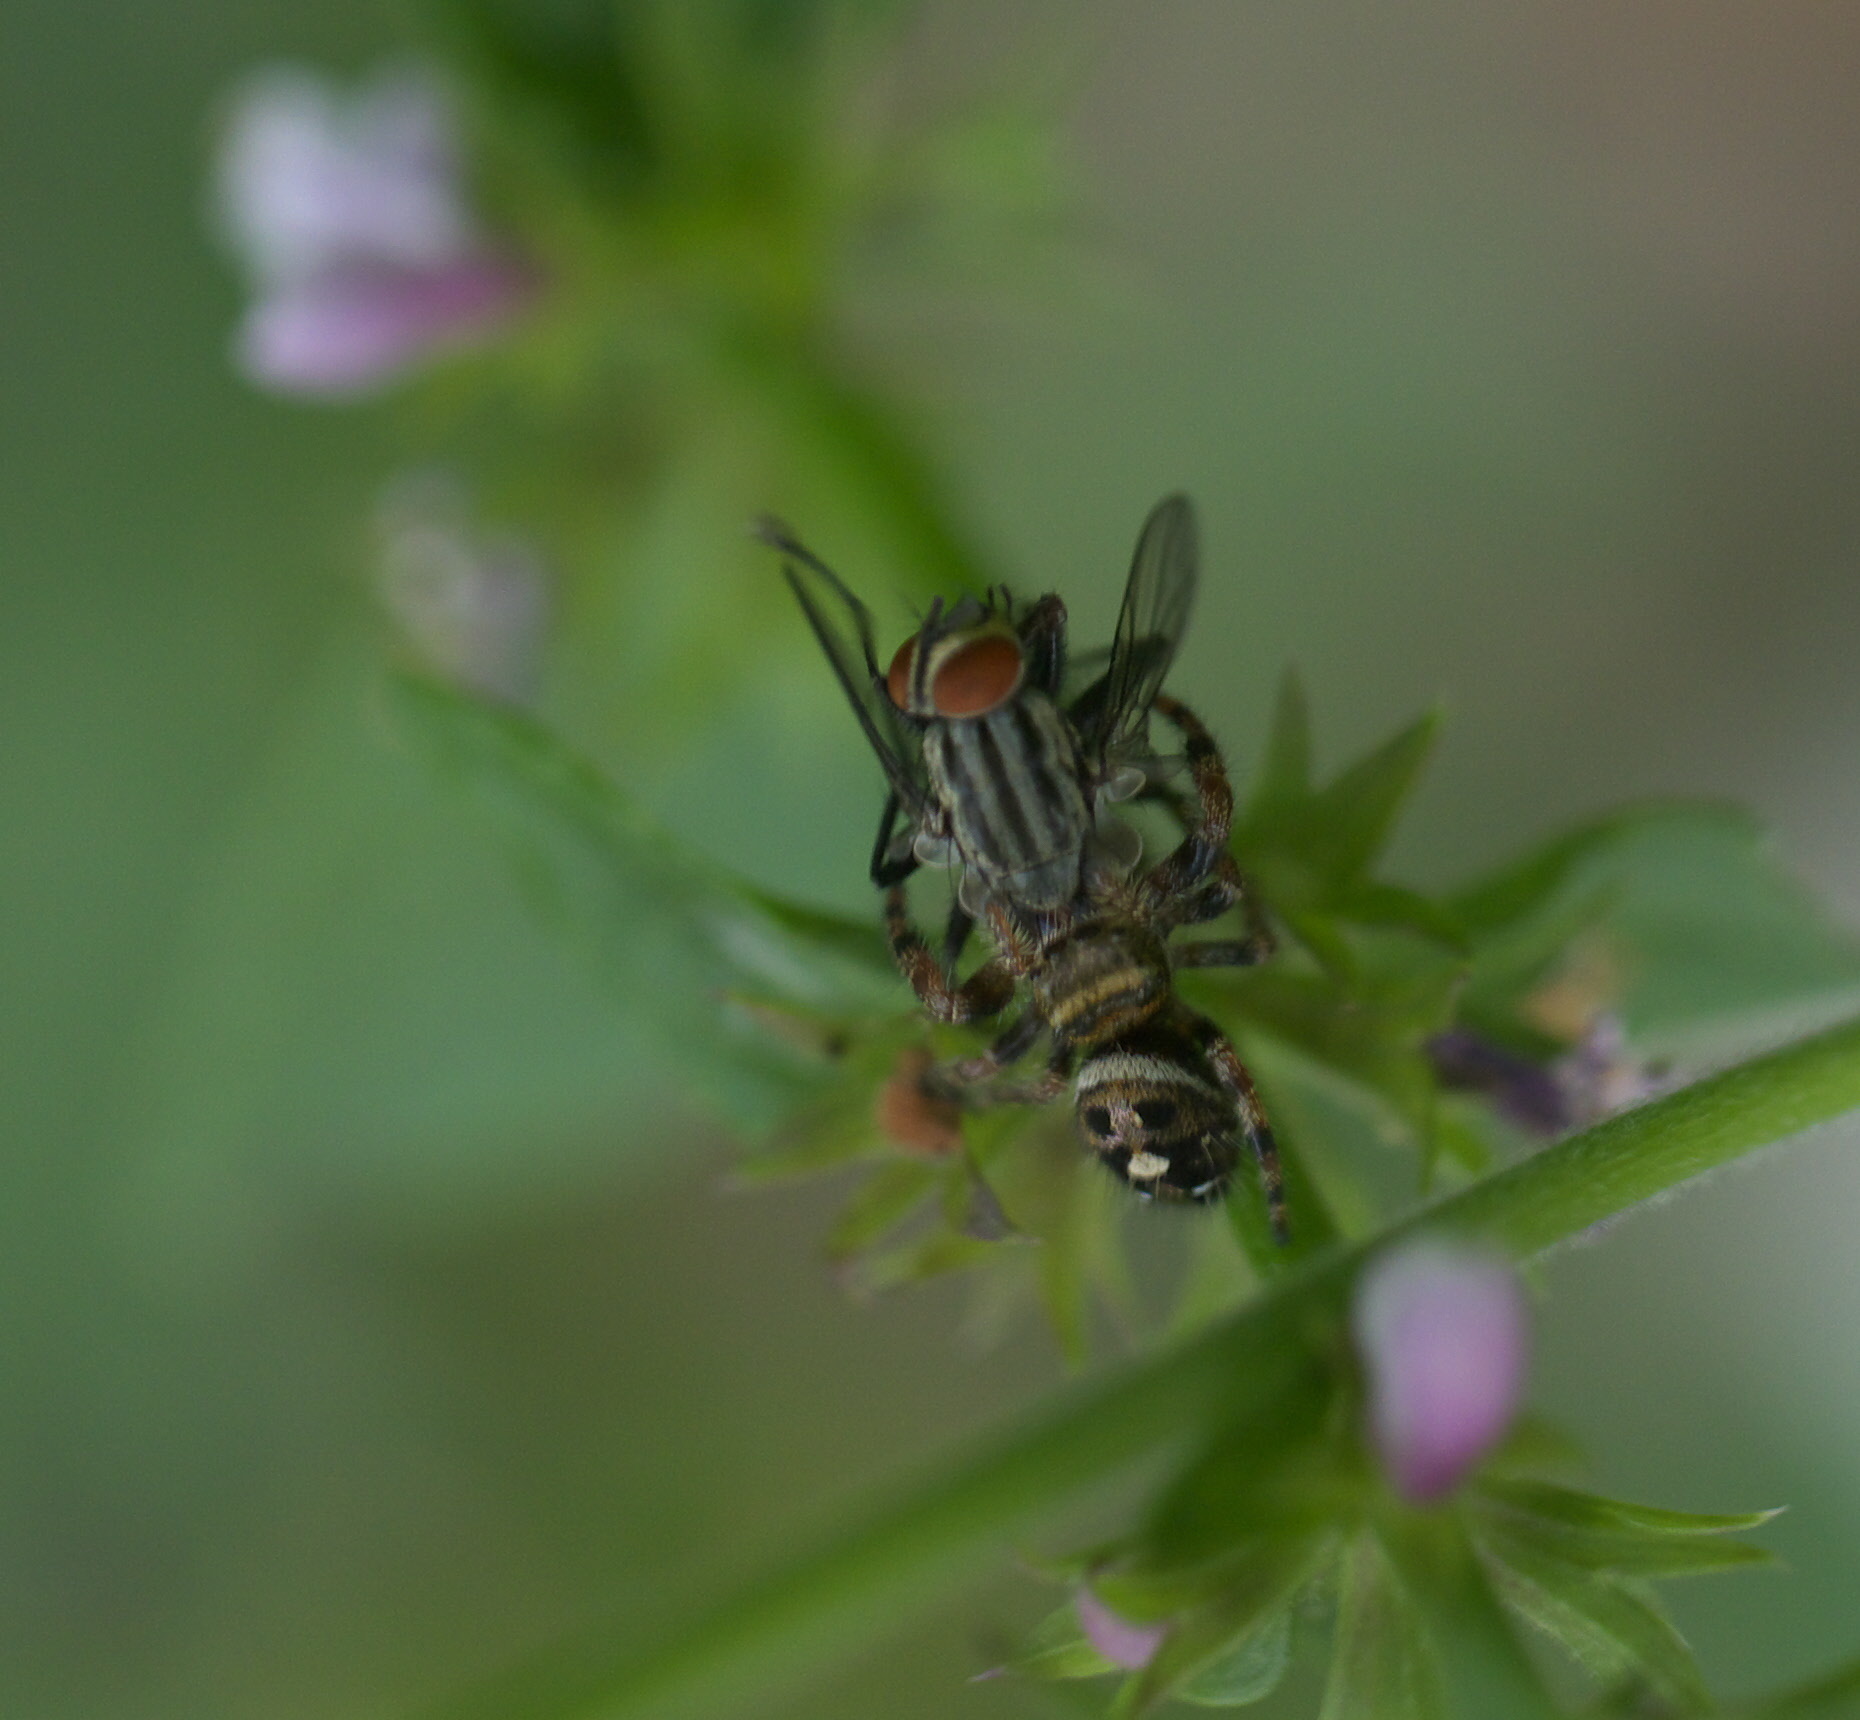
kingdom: Animalia
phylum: Arthropoda
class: Arachnida
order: Araneae
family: Salticidae
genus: Phidippus
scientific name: Phidippus audax
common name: Bold jumper
